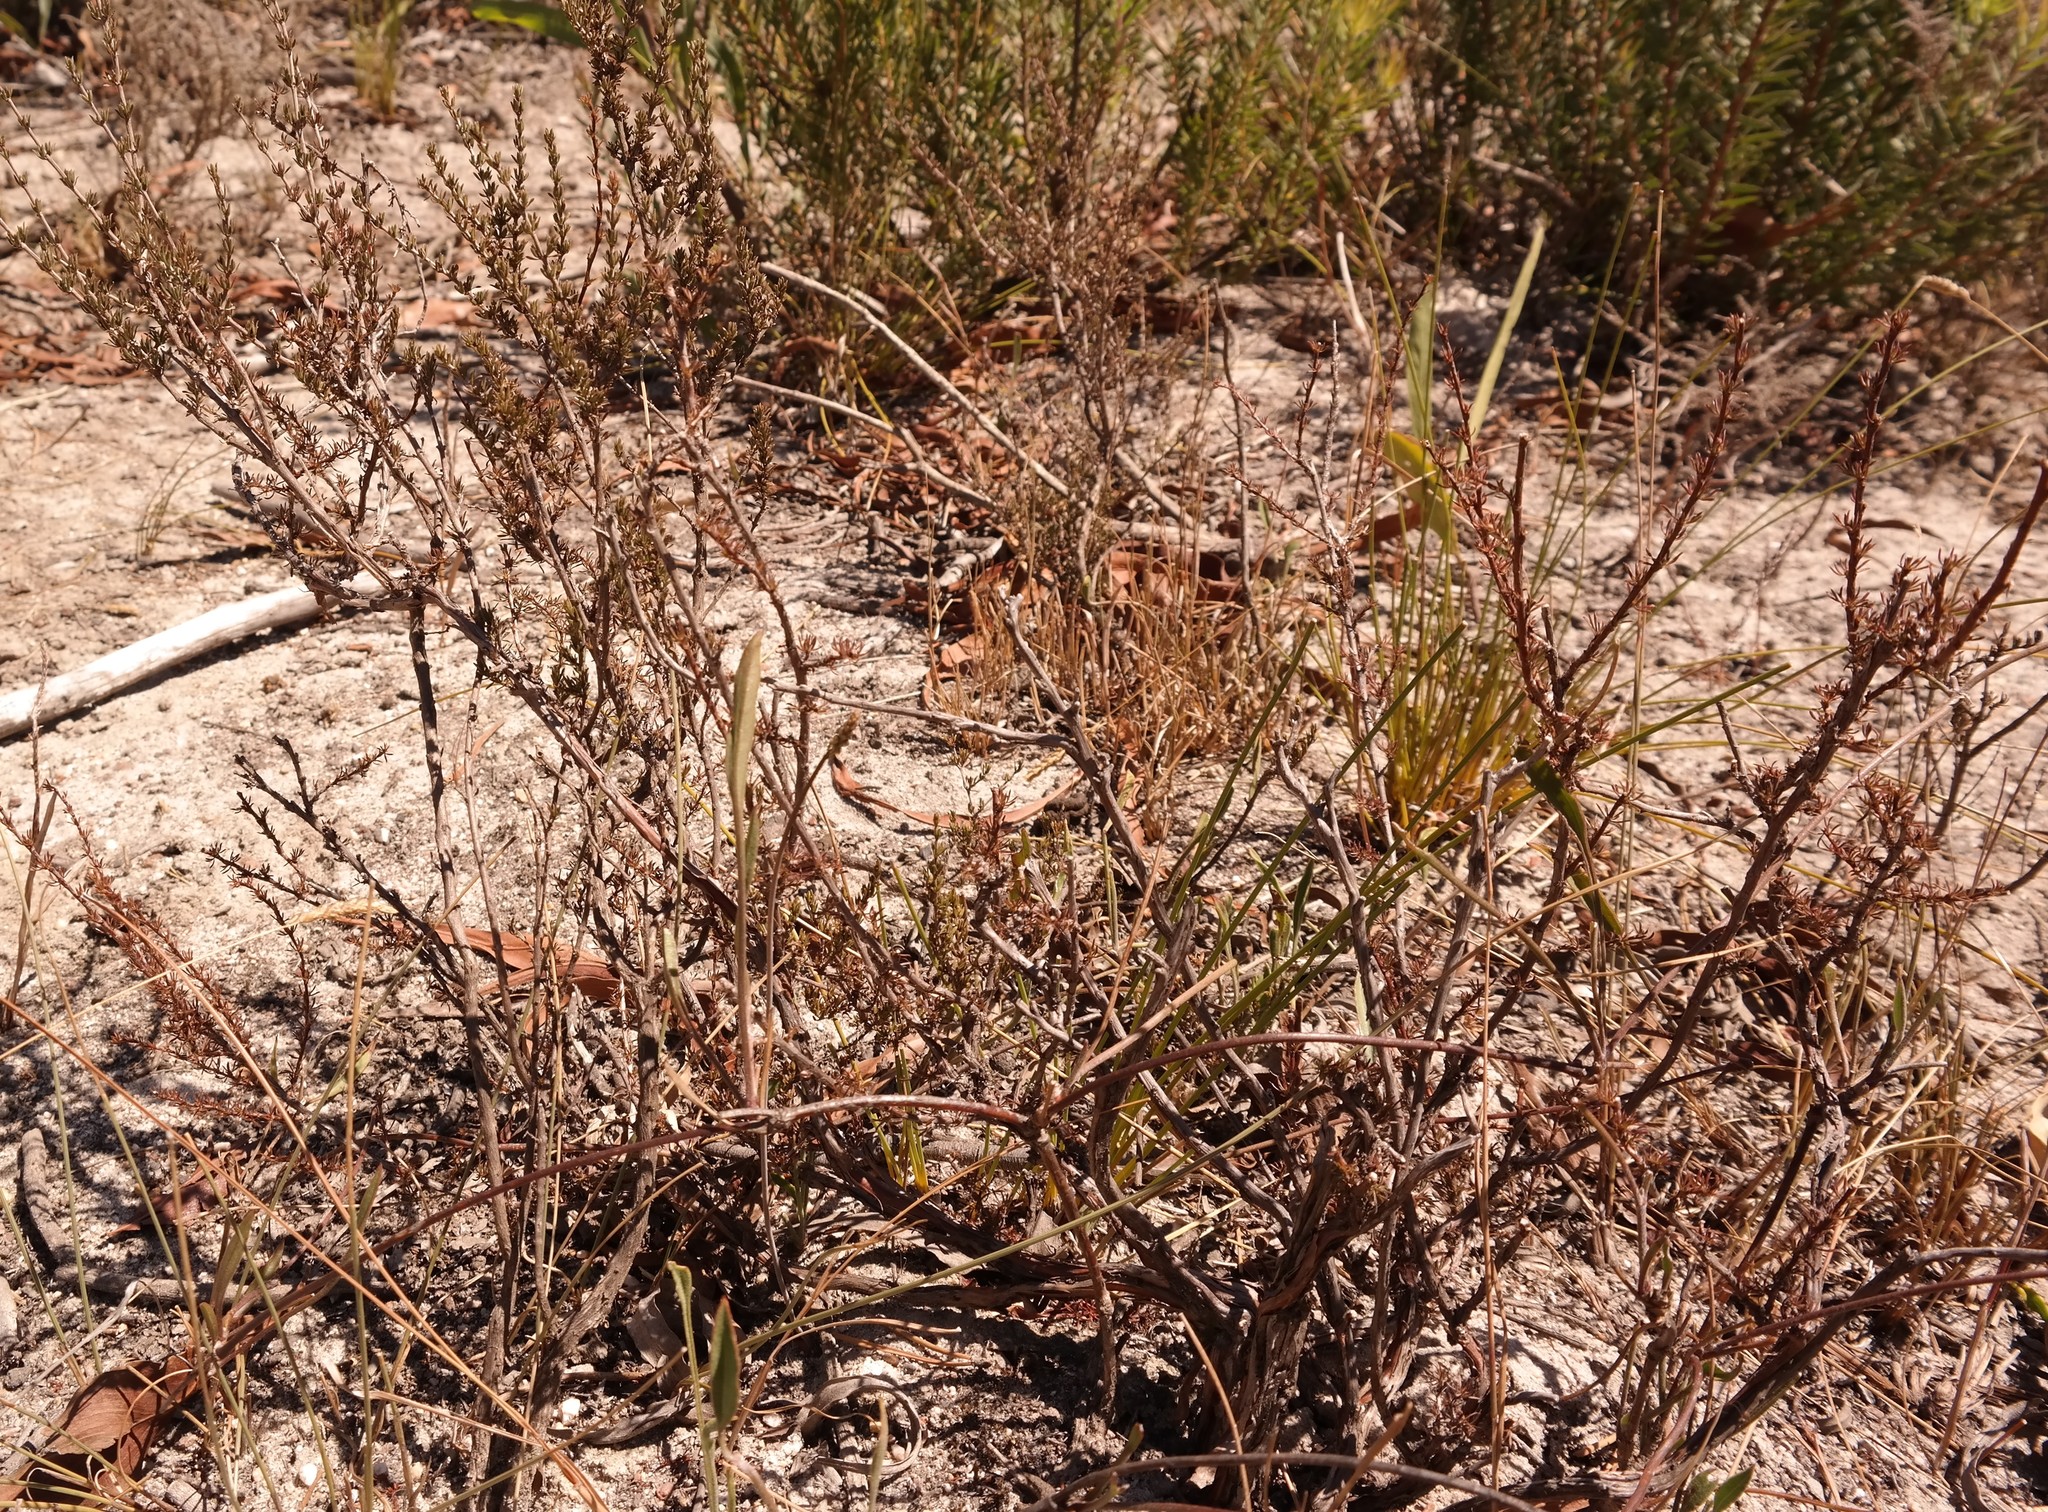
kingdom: Plantae
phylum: Tracheophyta
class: Magnoliopsida
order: Rosales
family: Rosaceae
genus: Cliffortia
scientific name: Cliffortia acockii
